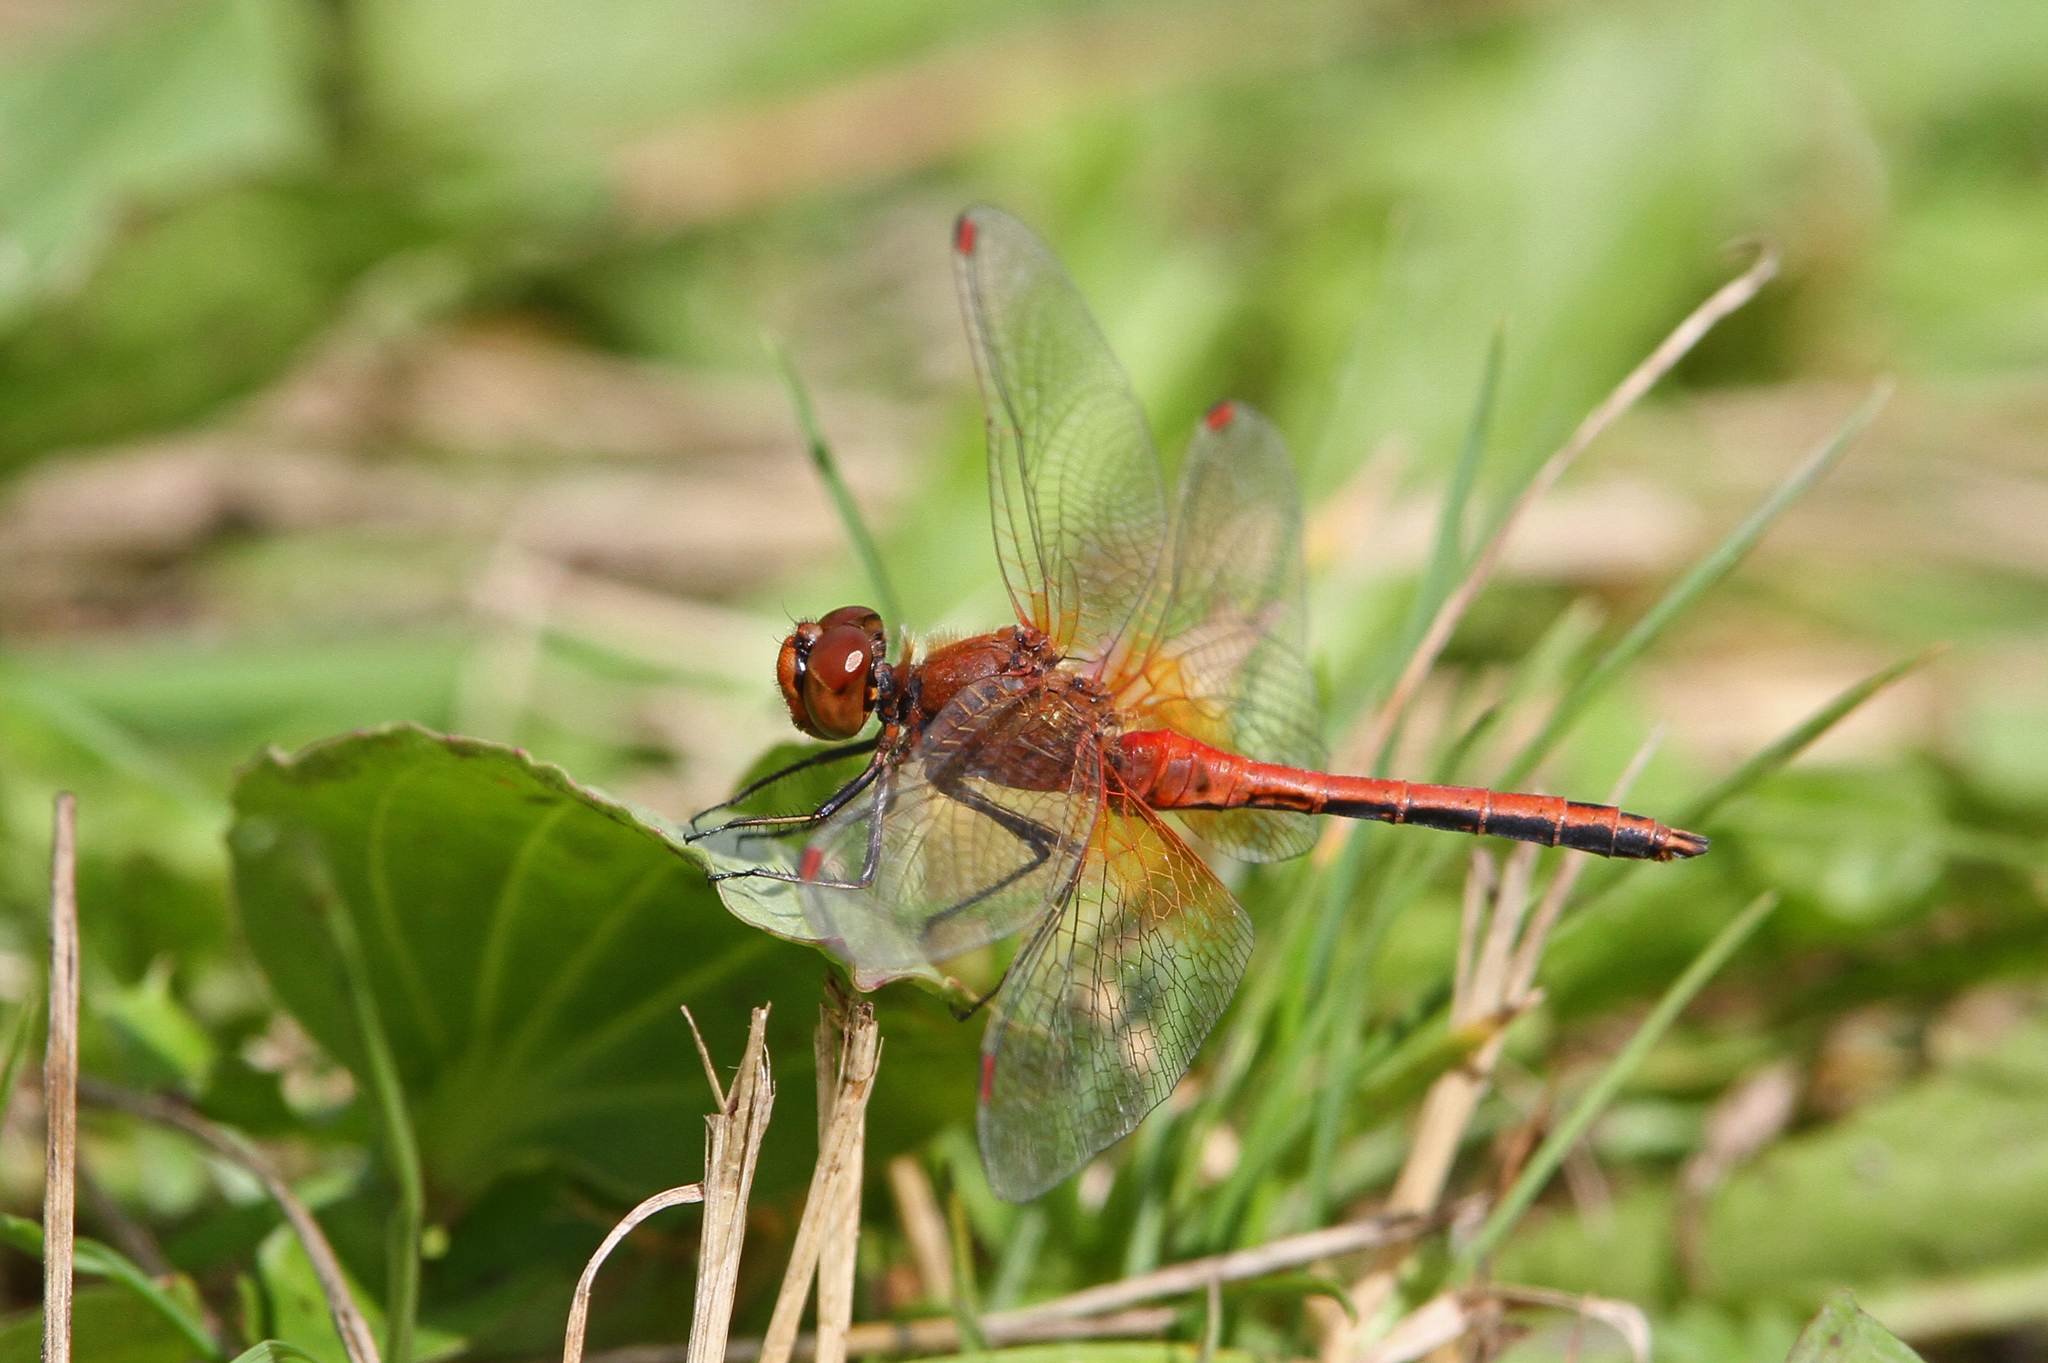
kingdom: Animalia
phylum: Arthropoda
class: Insecta
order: Odonata
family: Libellulidae
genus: Sympetrum
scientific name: Sympetrum flaveolum
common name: Yellow-winged darter
